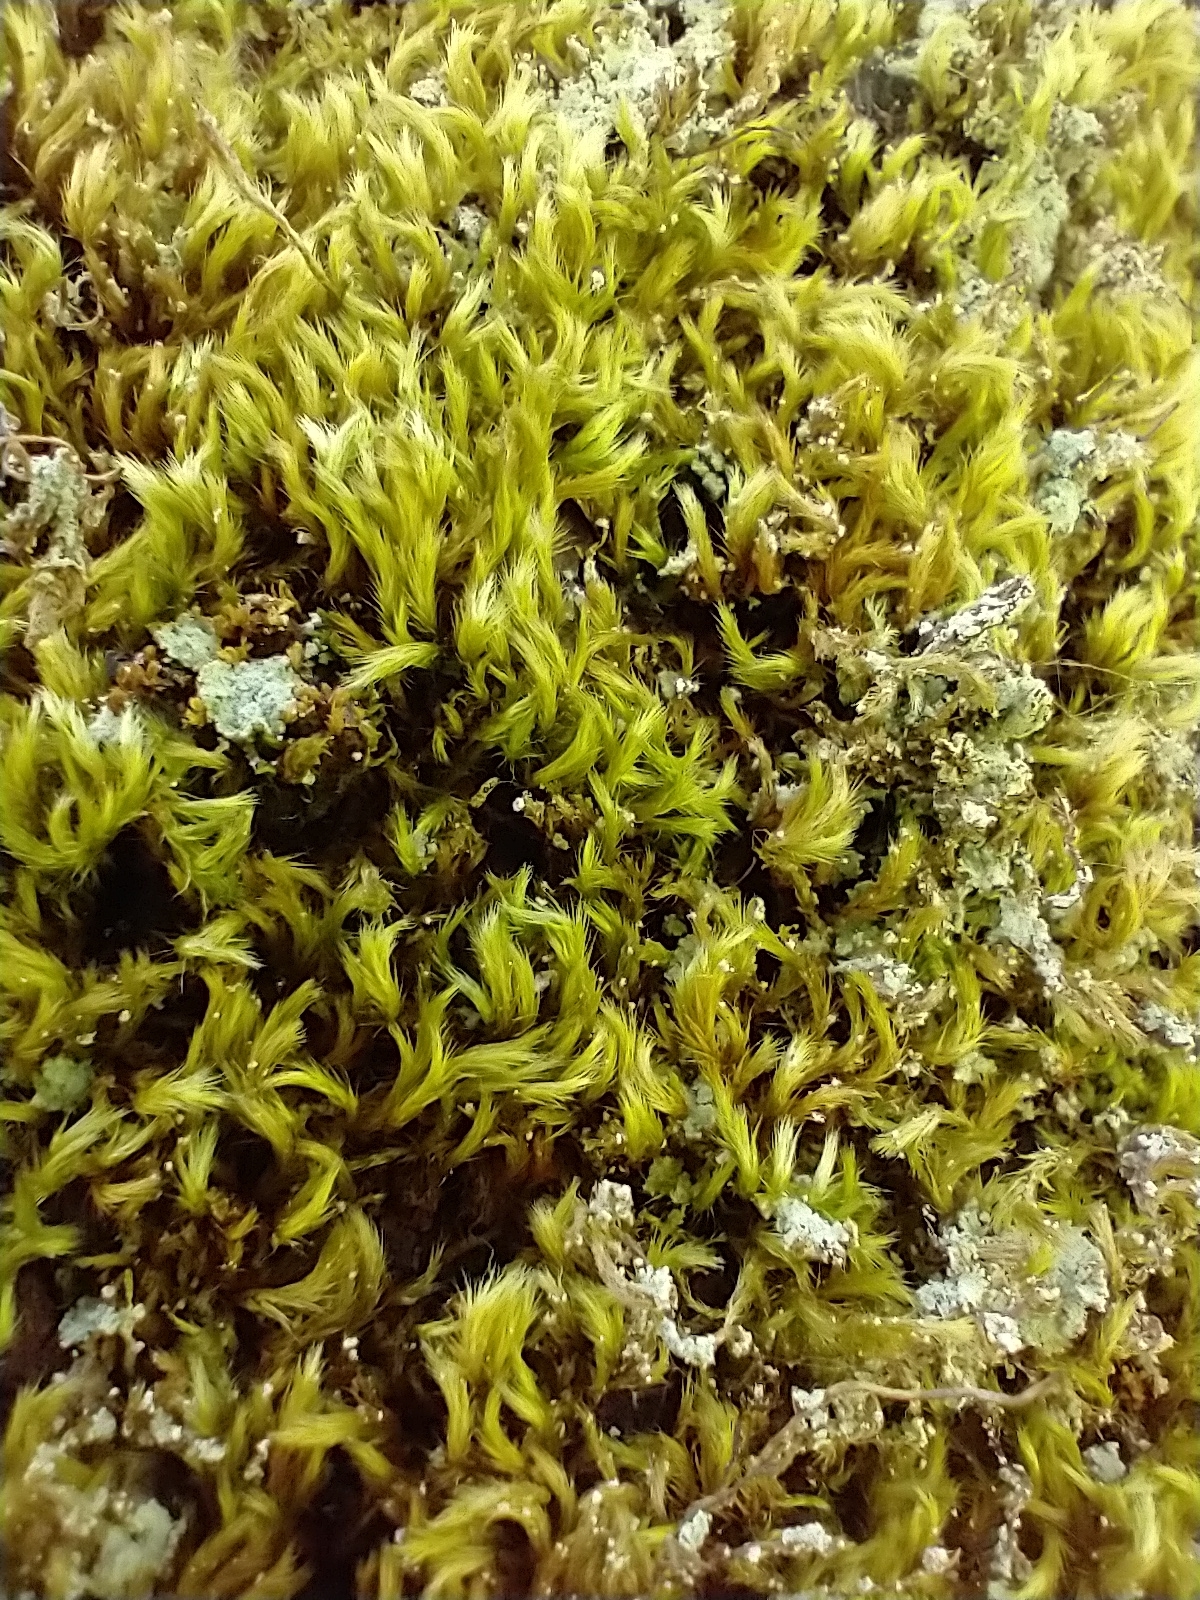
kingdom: Plantae
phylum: Bryophyta
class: Bryopsida
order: Hypnales
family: Brachytheciaceae
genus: Homalothecium
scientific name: Homalothecium sericeum
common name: Silky wall feather-moss
